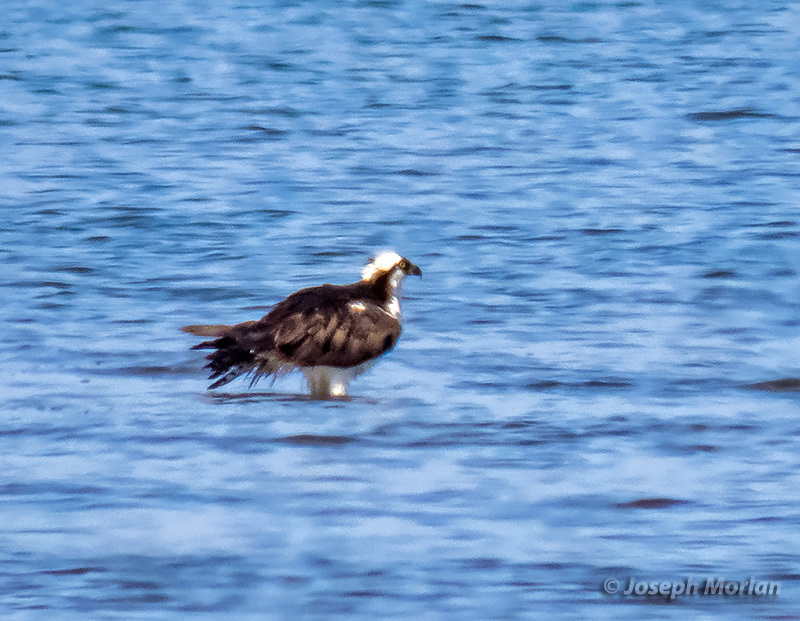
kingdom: Animalia
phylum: Chordata
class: Aves
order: Accipitriformes
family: Pandionidae
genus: Pandion
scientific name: Pandion haliaetus
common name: Osprey
